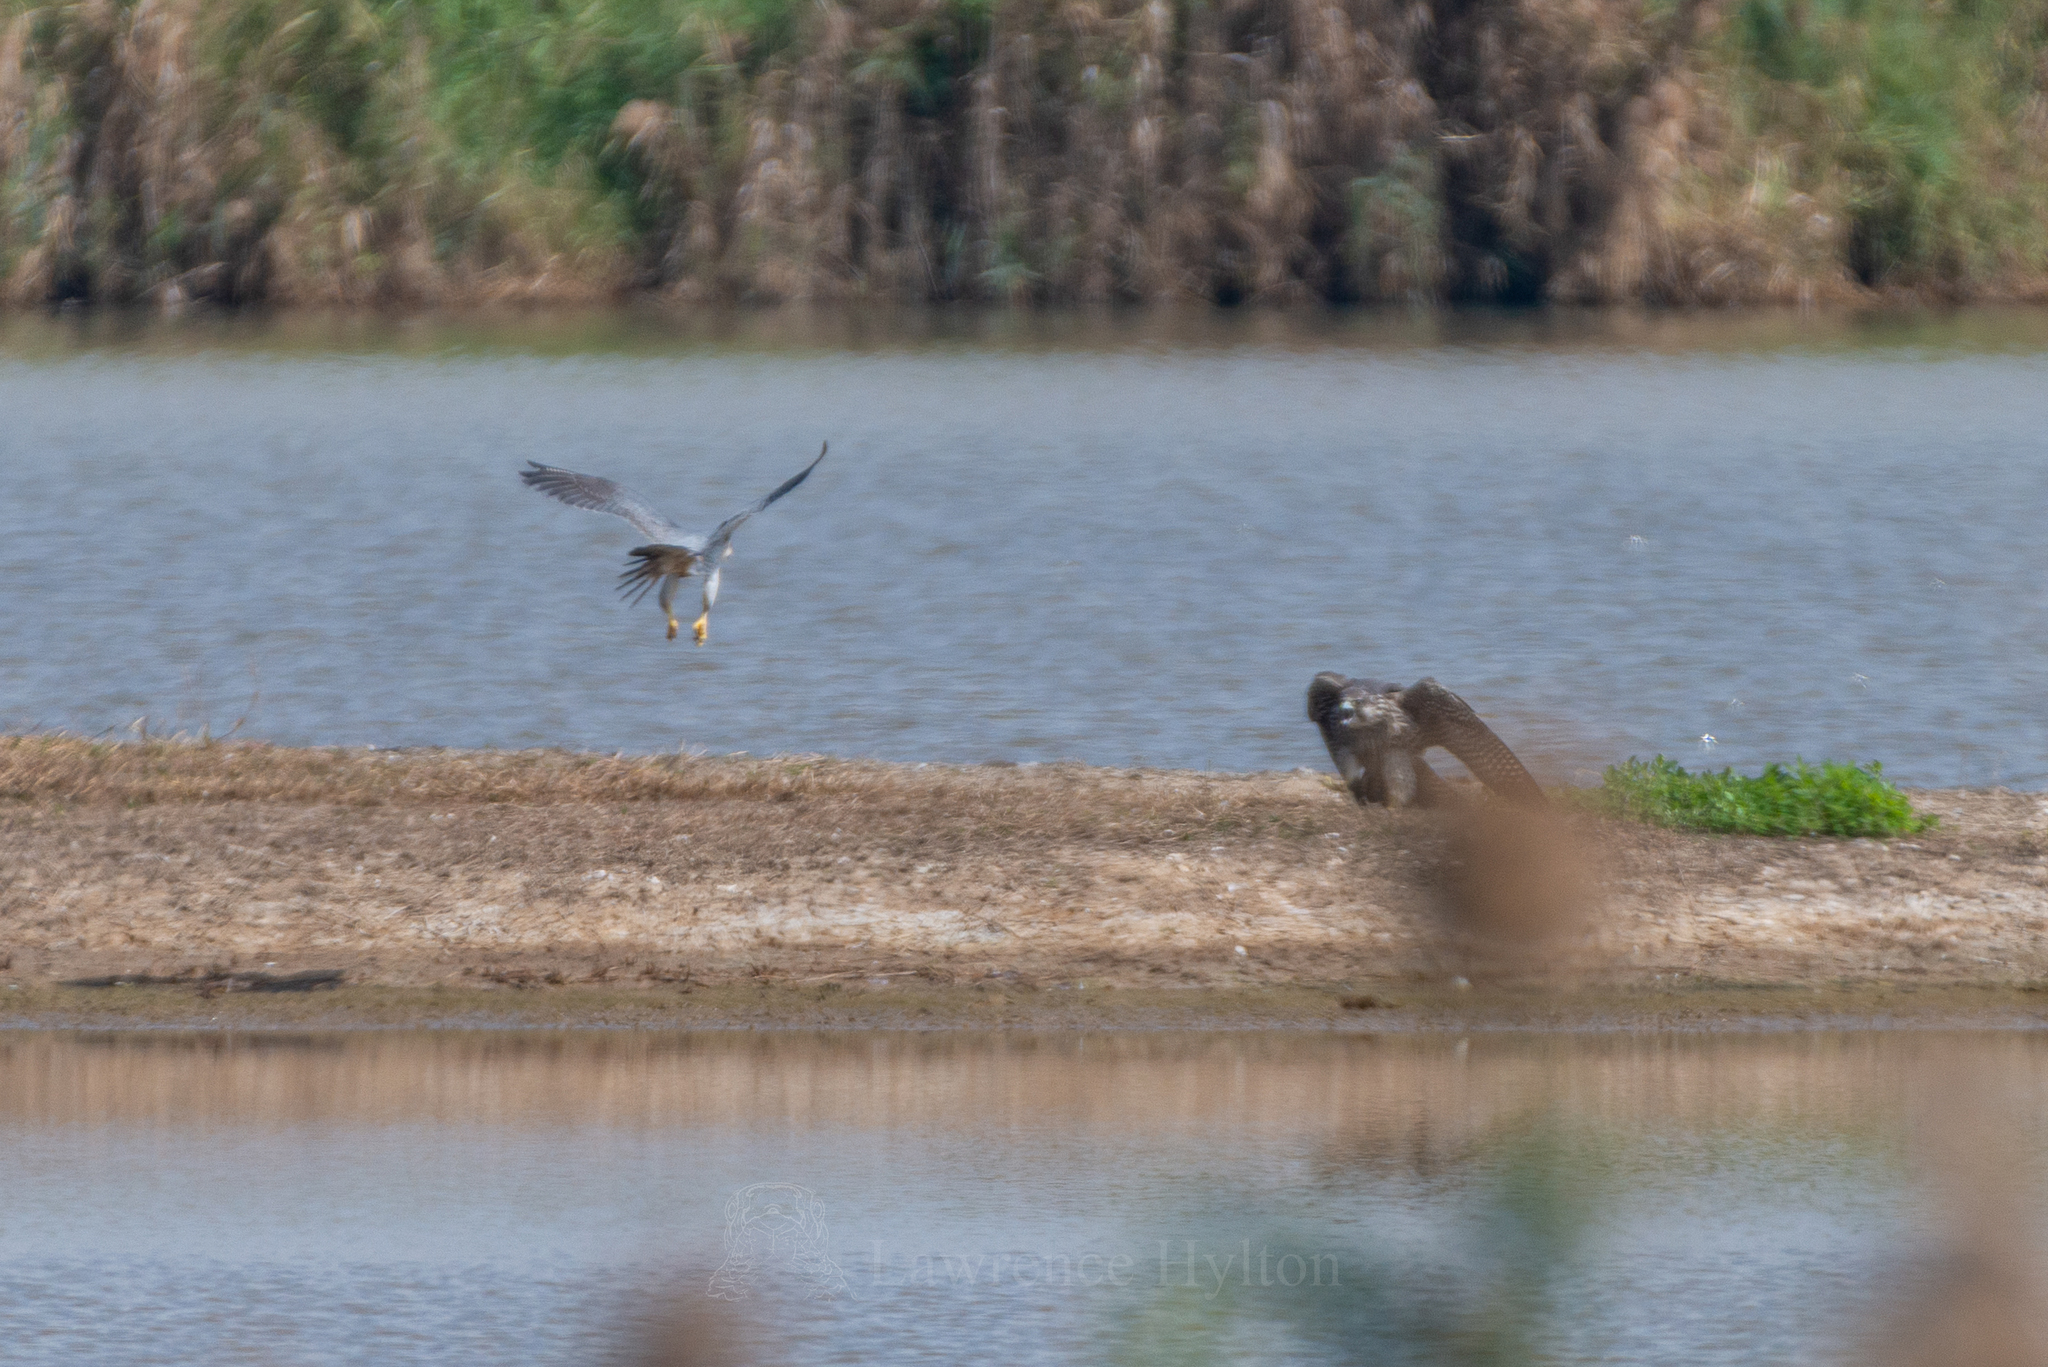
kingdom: Animalia
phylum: Chordata
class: Aves
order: Falconiformes
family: Falconidae
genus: Falco
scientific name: Falco peregrinus
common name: Peregrine falcon
